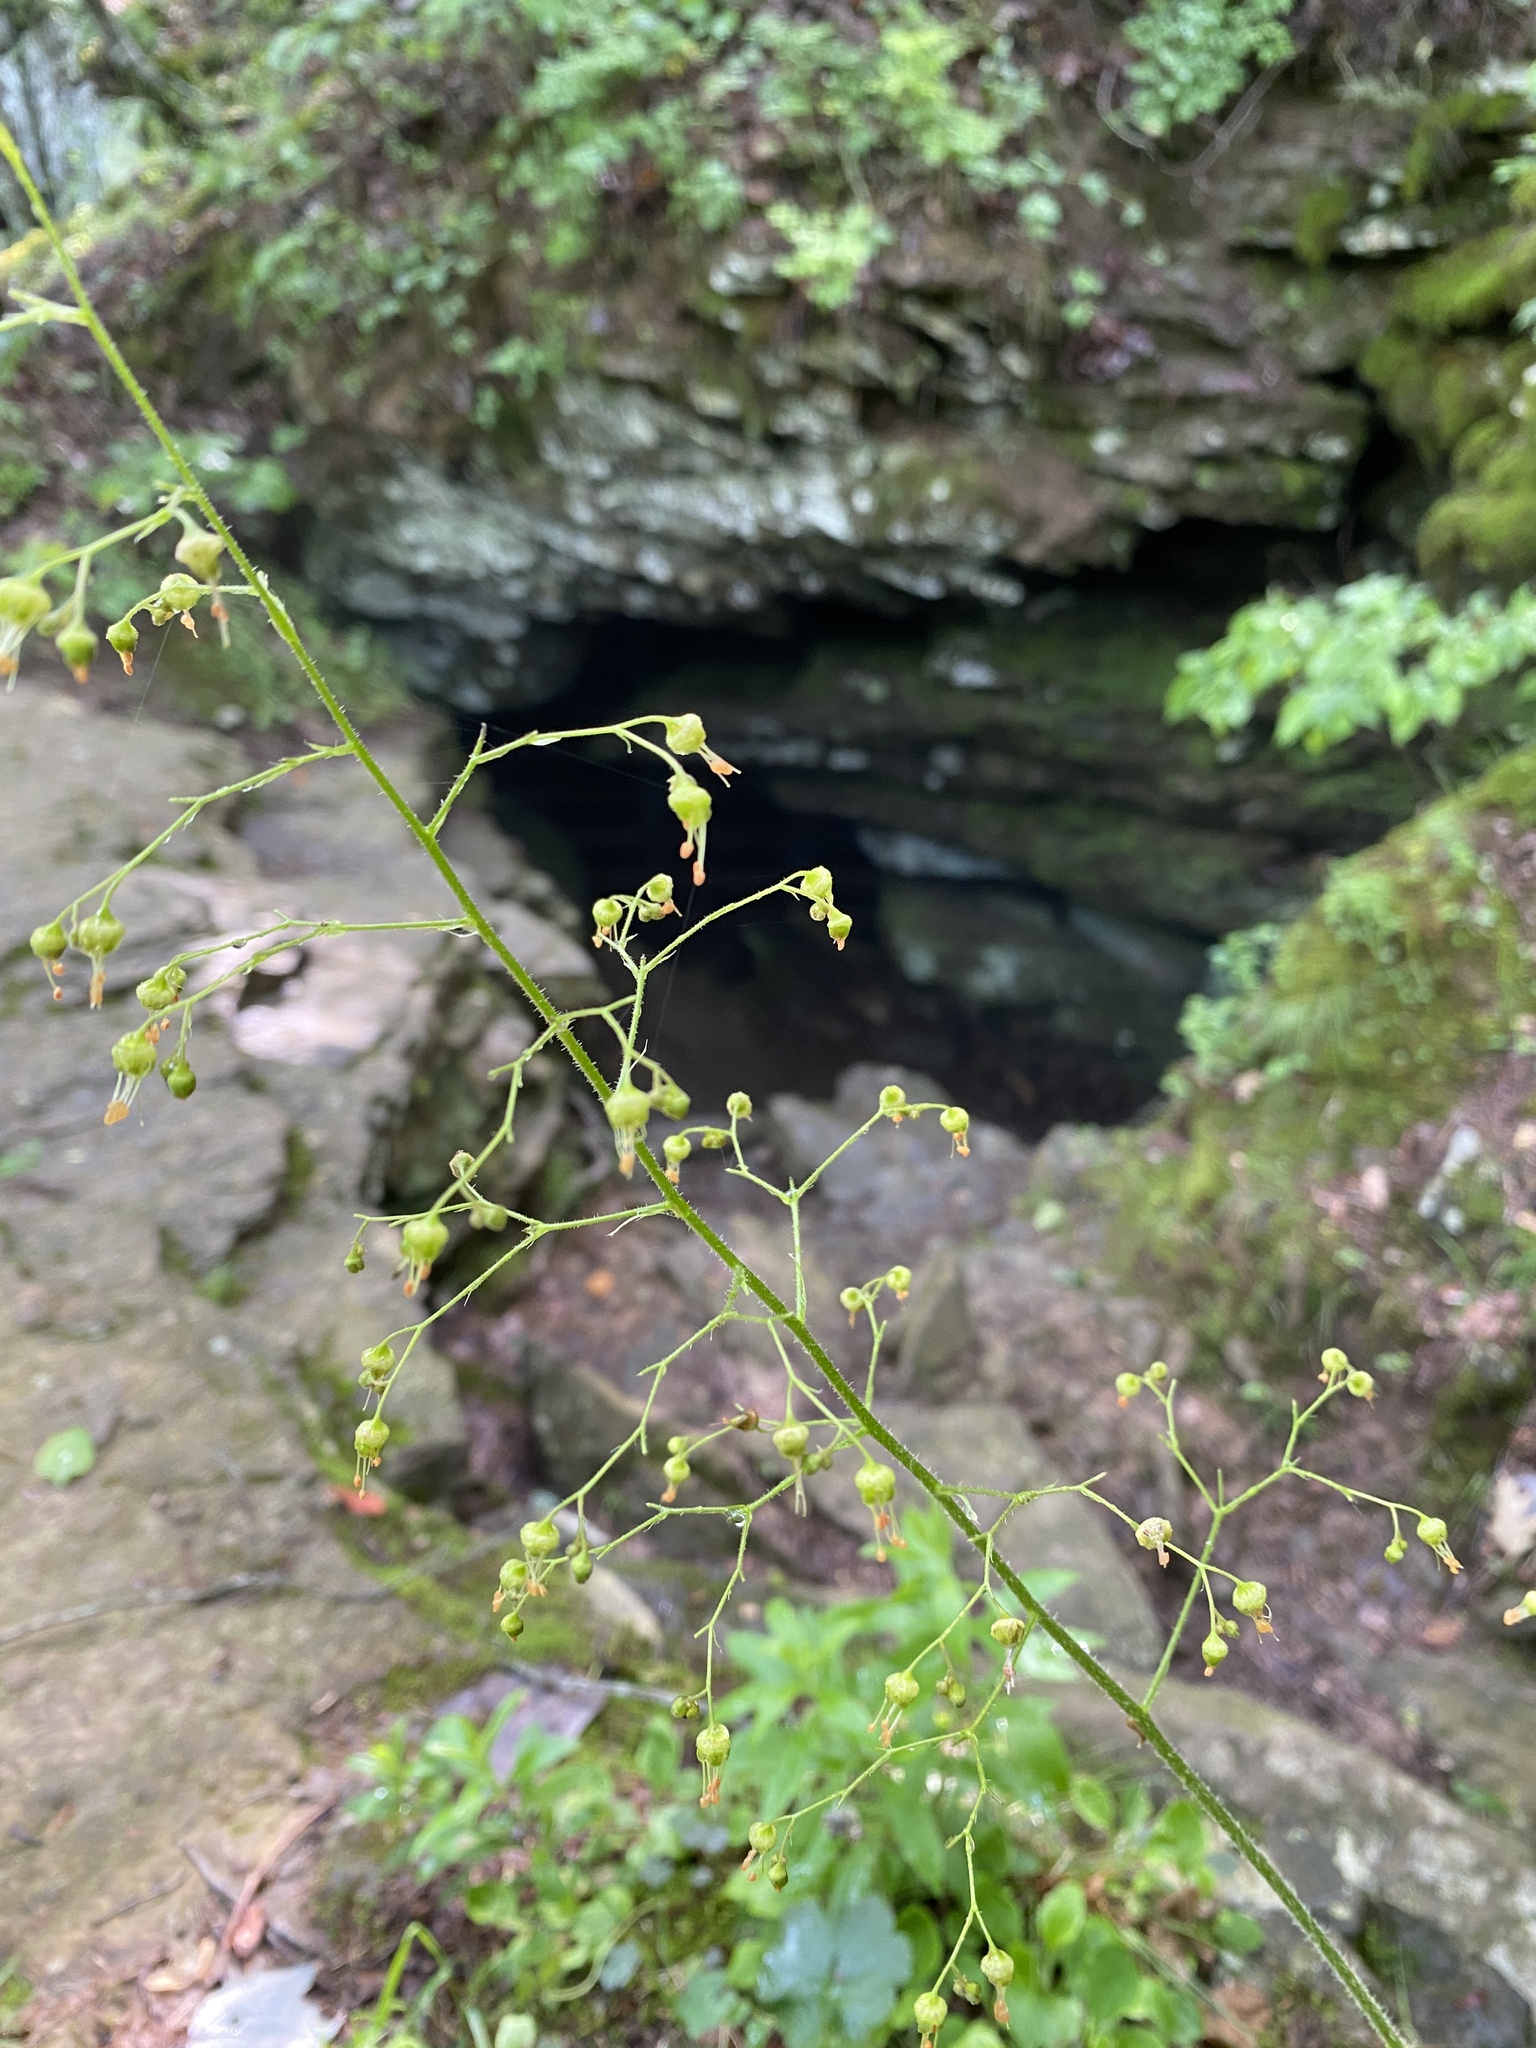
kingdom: Plantae
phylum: Tracheophyta
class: Magnoliopsida
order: Saxifragales
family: Saxifragaceae
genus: Heuchera
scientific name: Heuchera americana
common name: Alumroot
